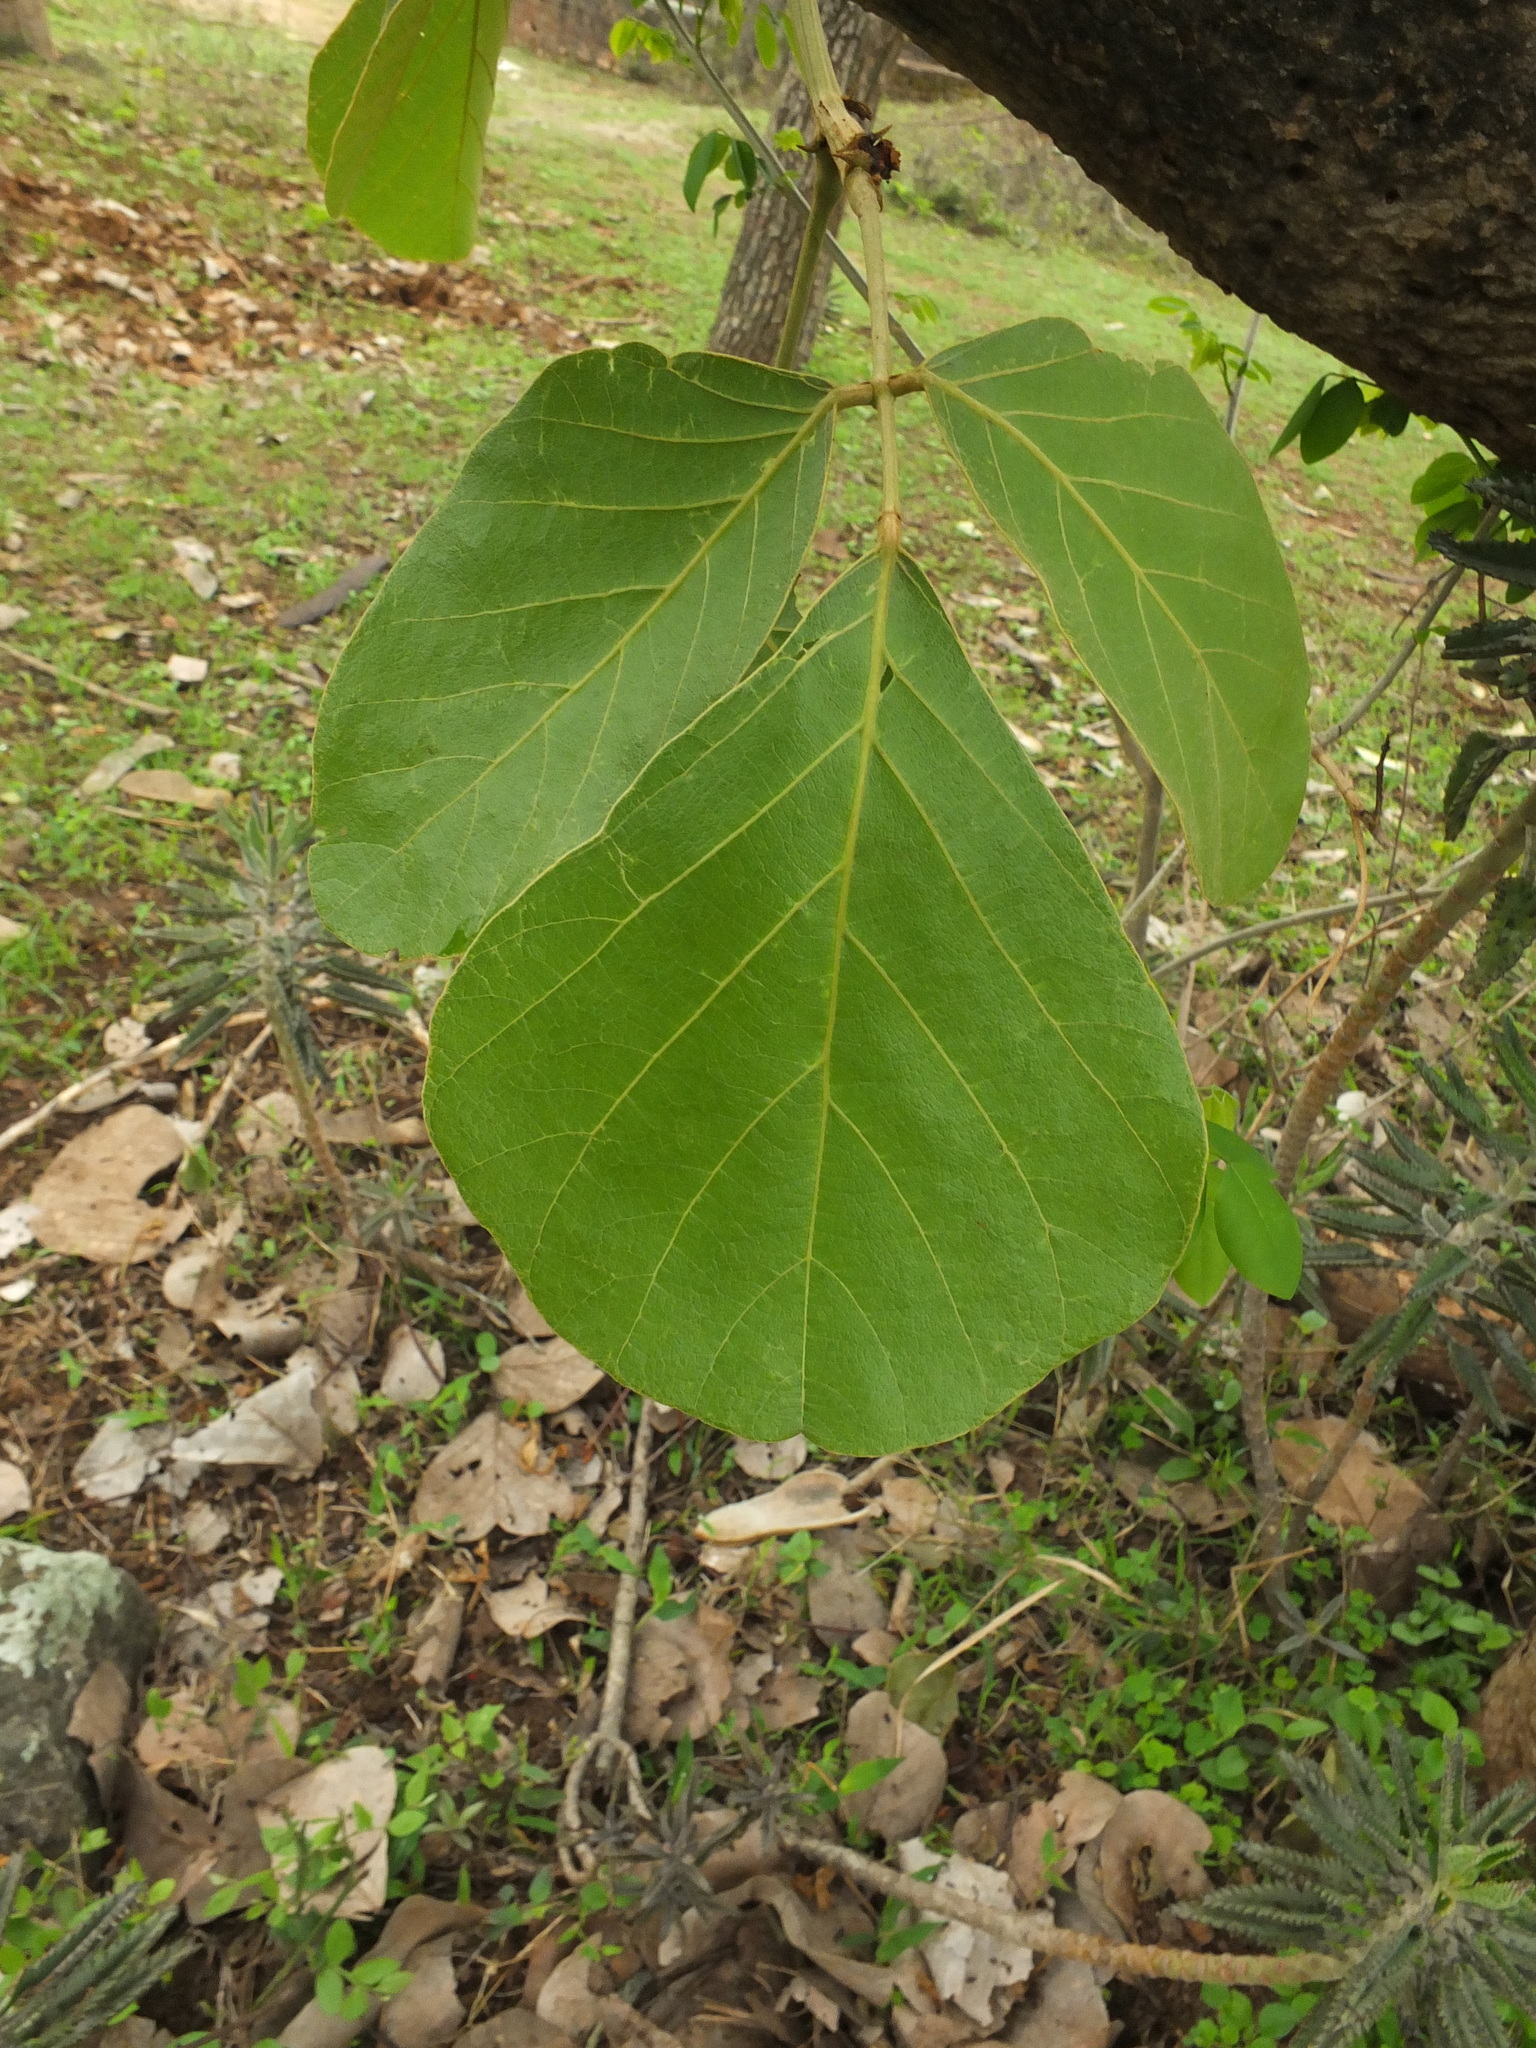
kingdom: Plantae
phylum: Tracheophyta
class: Magnoliopsida
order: Fabales
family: Fabaceae
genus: Butea
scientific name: Butea monosperma
